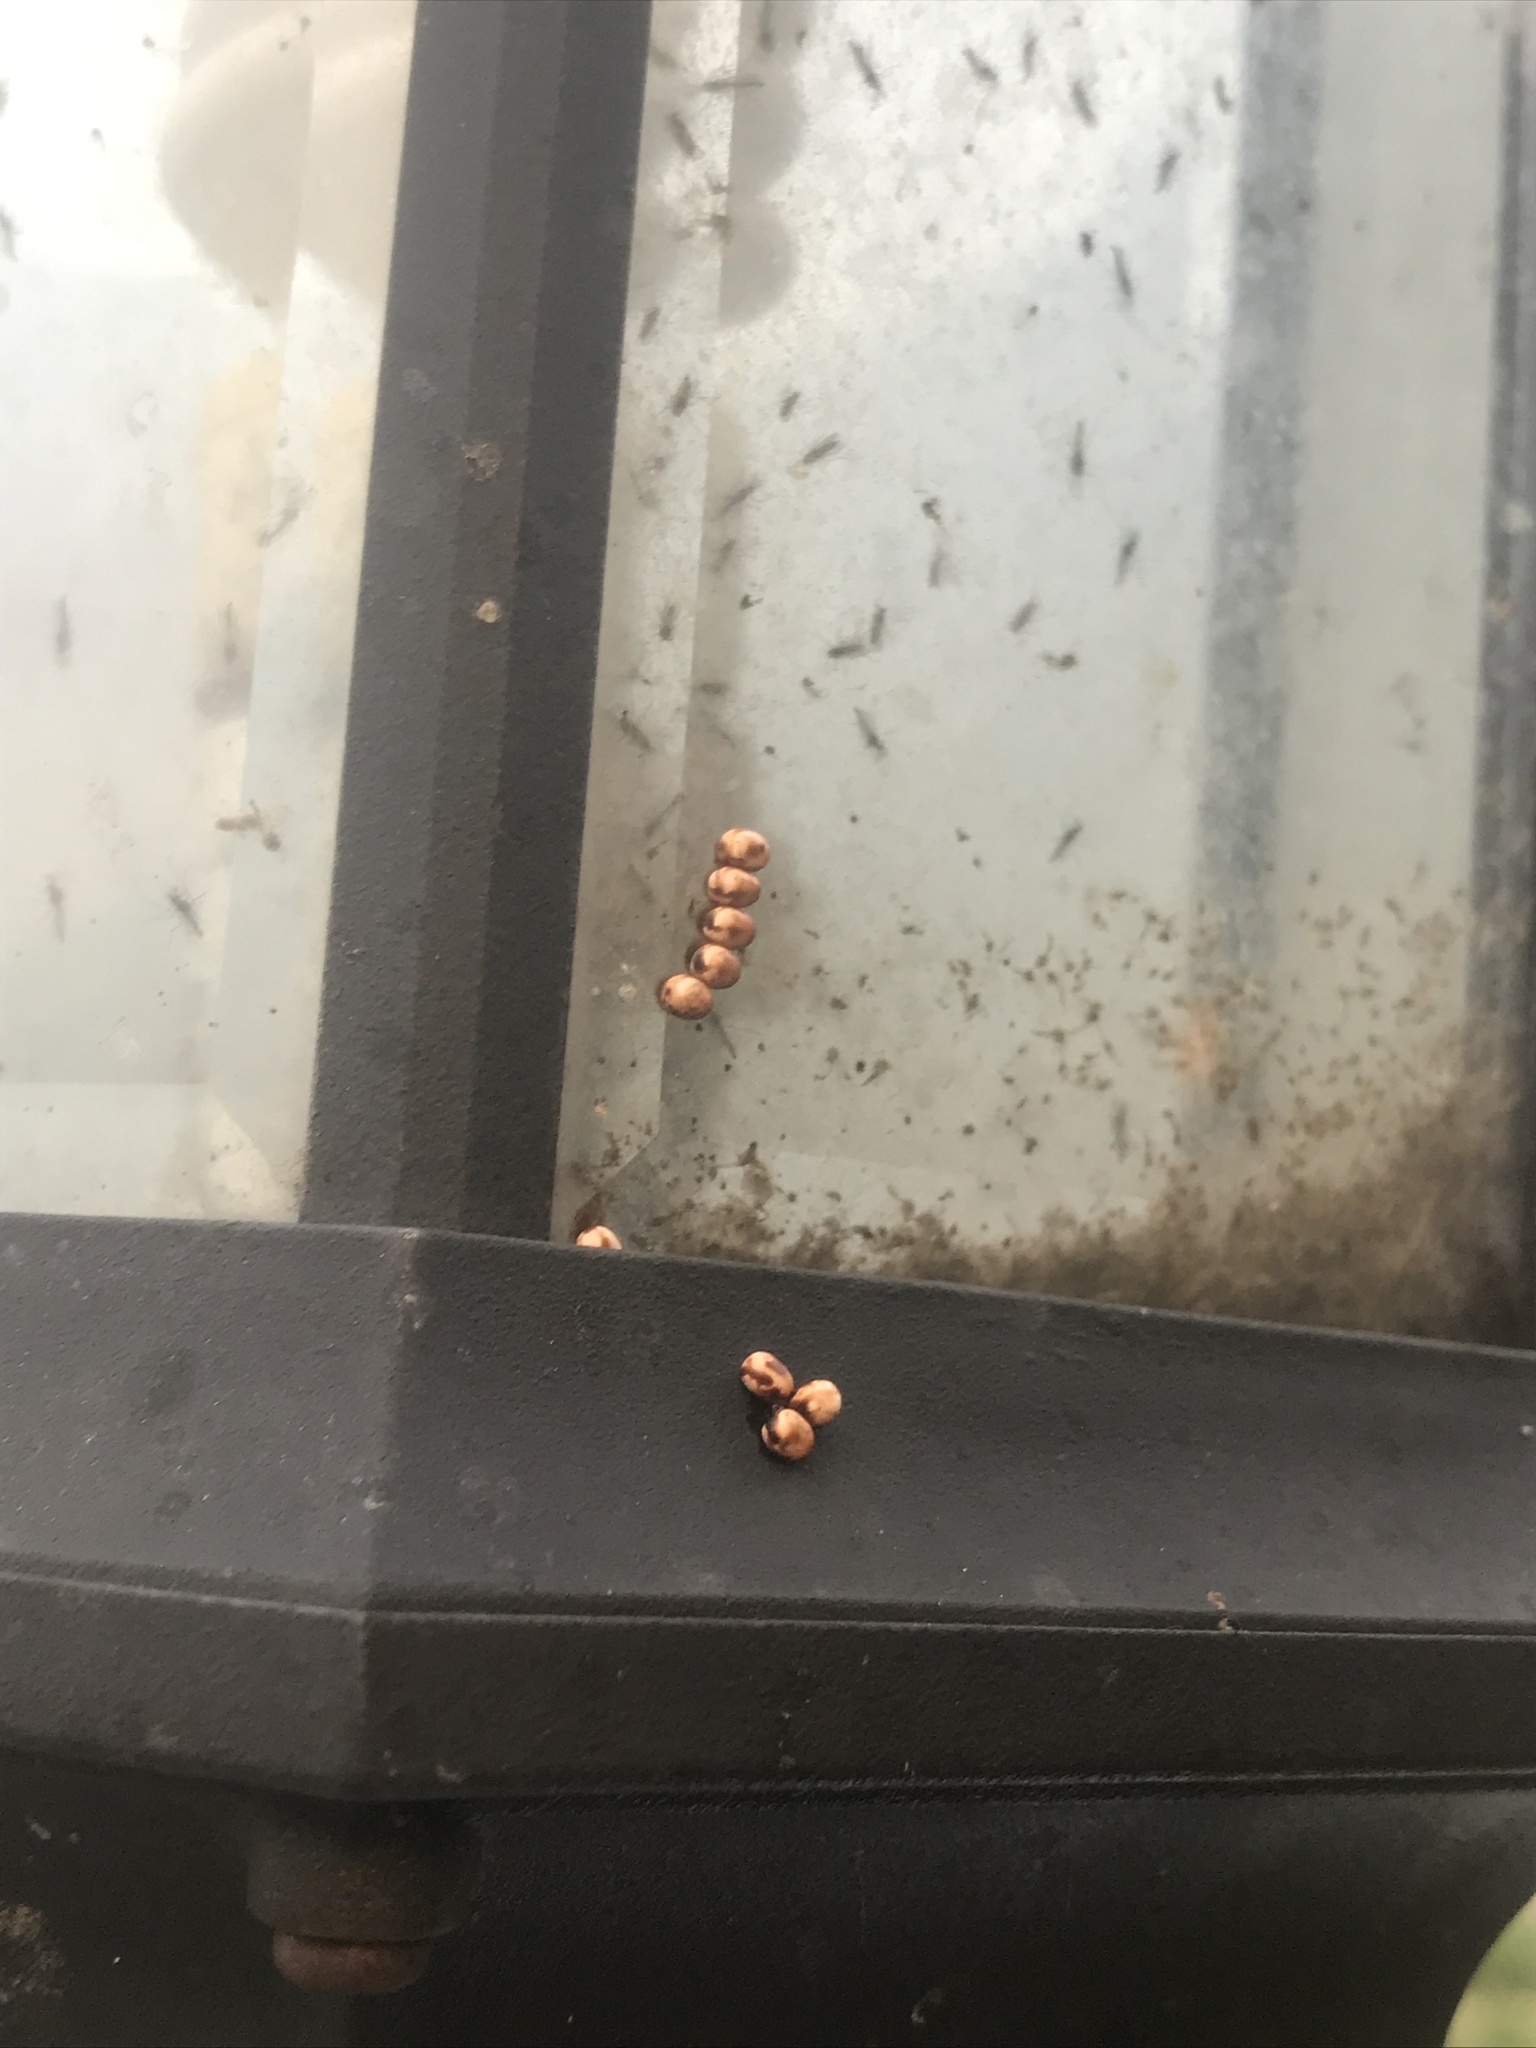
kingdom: Animalia
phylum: Arthropoda
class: Insecta
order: Lepidoptera
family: Saturniidae
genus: Hyalophora
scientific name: Hyalophora euryalus
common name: Ceanothus silkmoth
